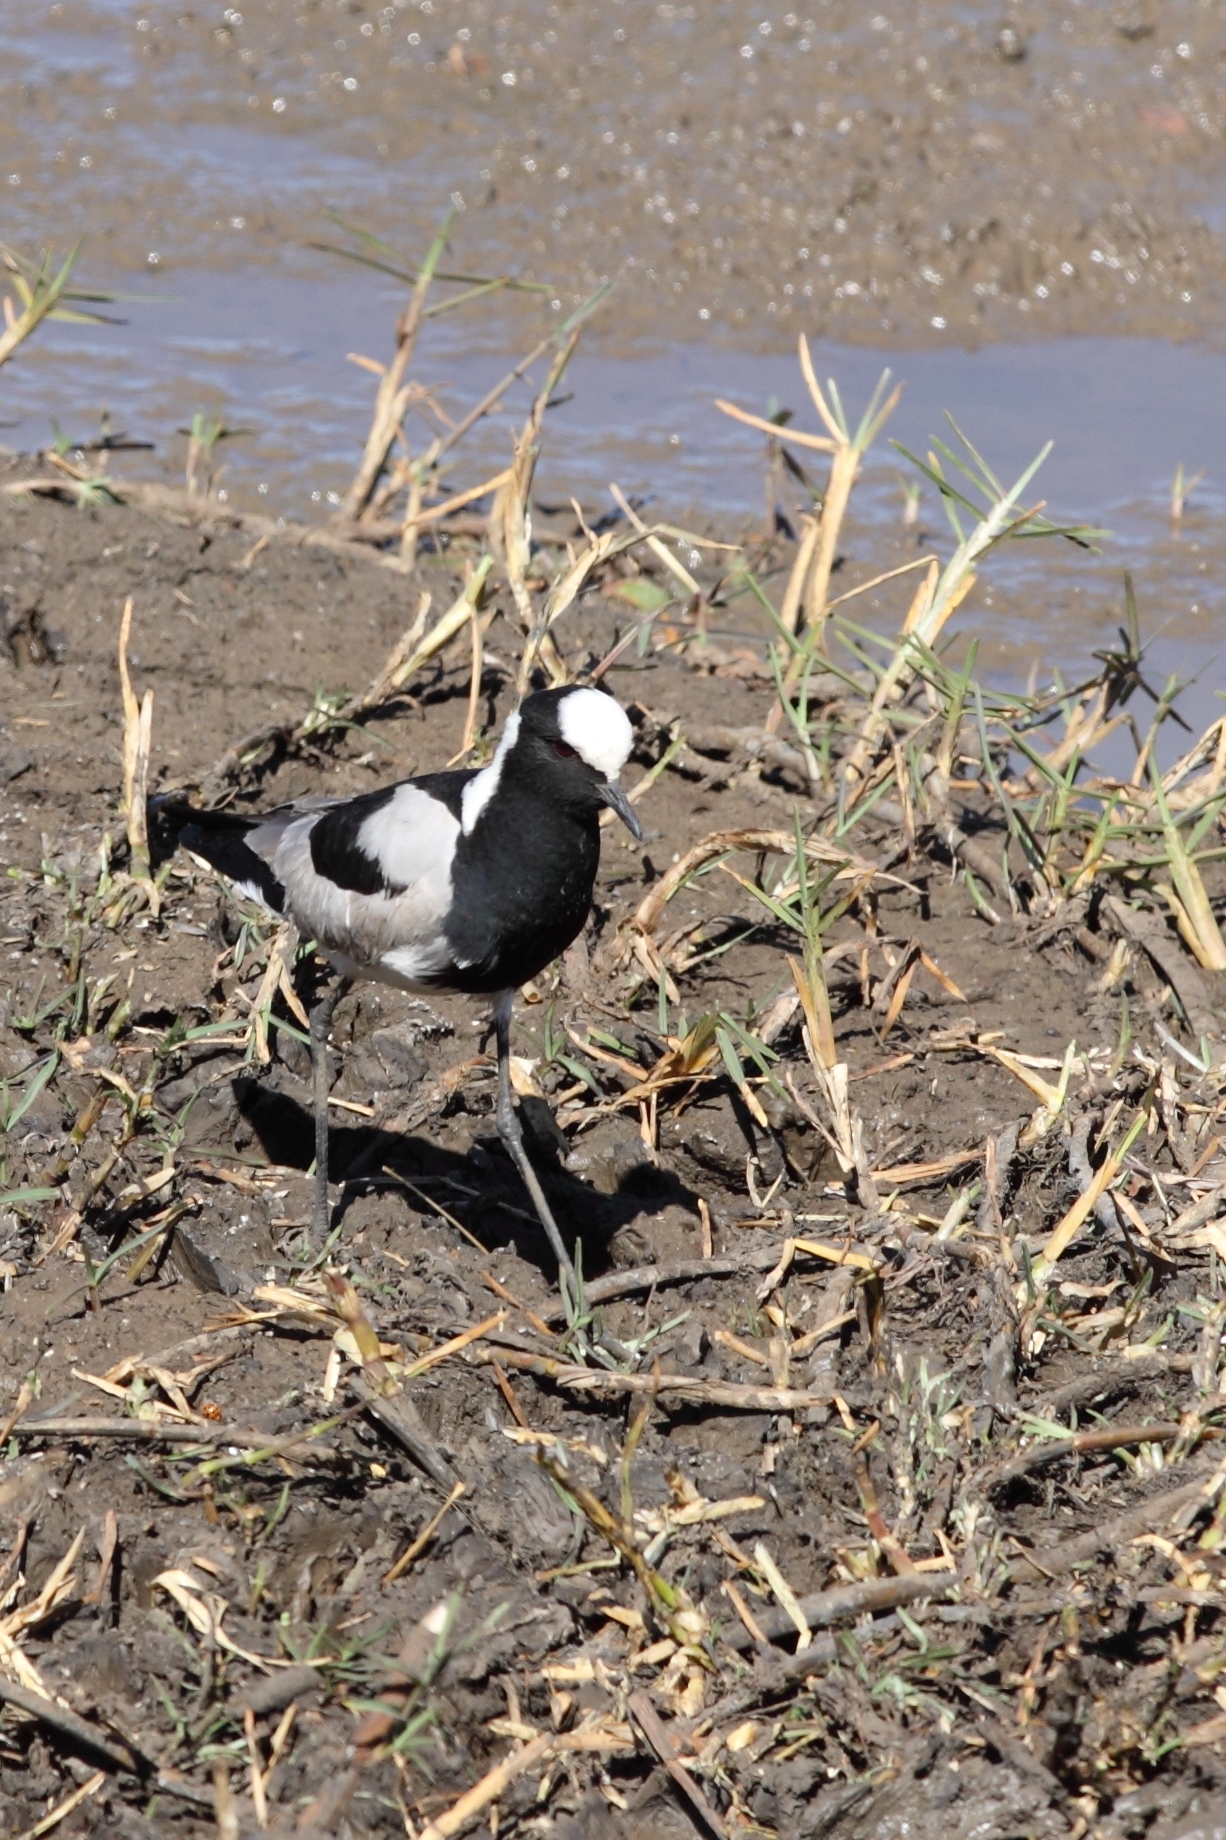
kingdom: Animalia
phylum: Chordata
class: Aves
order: Charadriiformes
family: Charadriidae
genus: Vanellus
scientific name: Vanellus armatus
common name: Blacksmith lapwing
